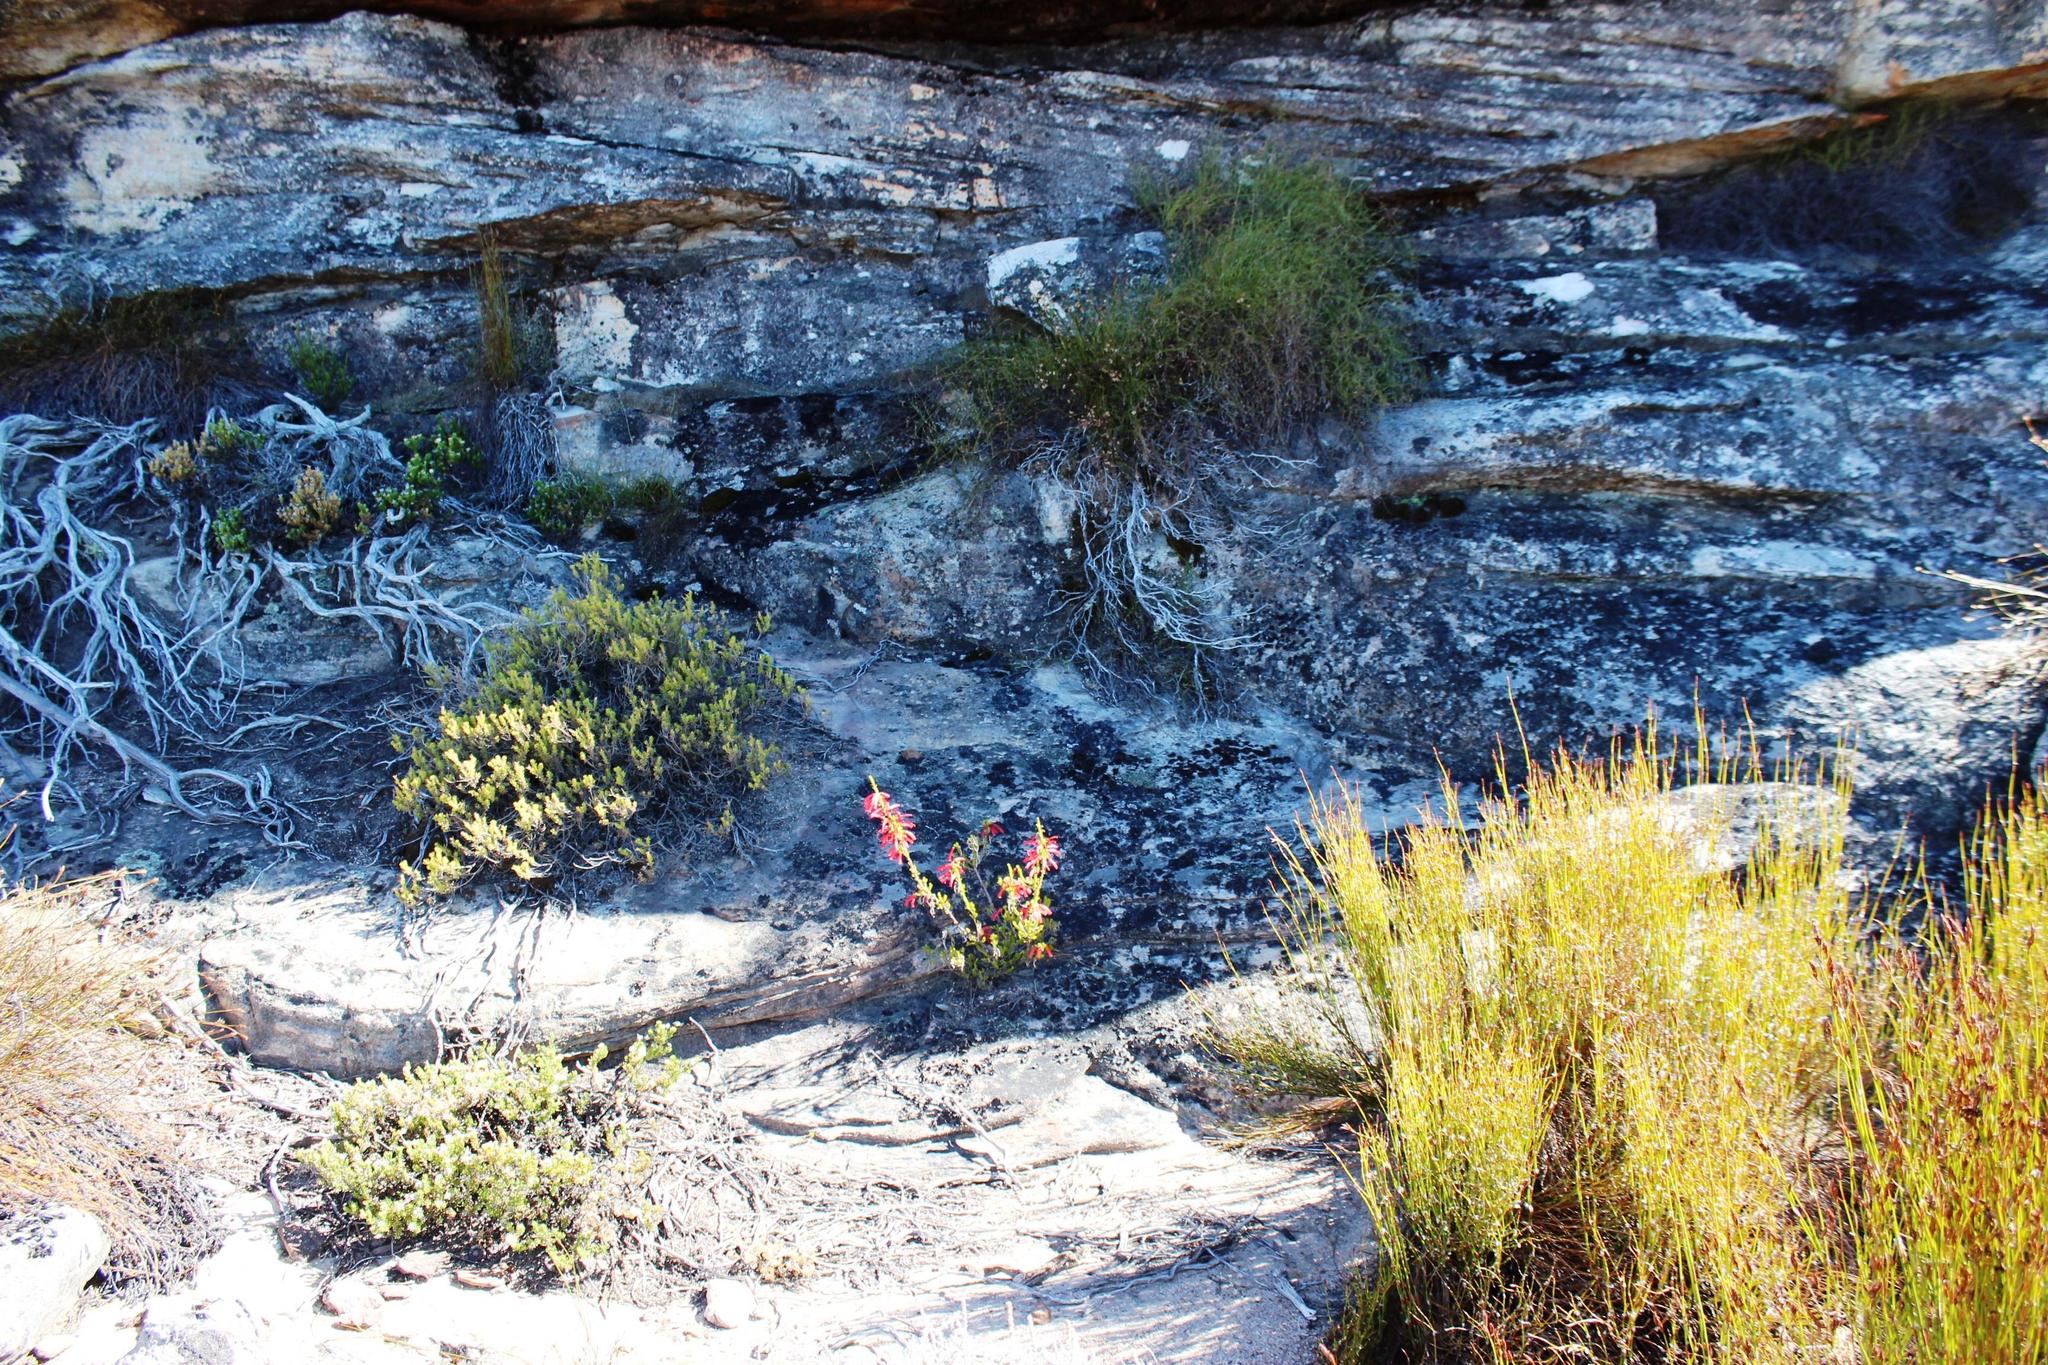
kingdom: Plantae
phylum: Tracheophyta
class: Magnoliopsida
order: Ericales
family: Ericaceae
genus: Erica
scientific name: Erica haematosiphon
